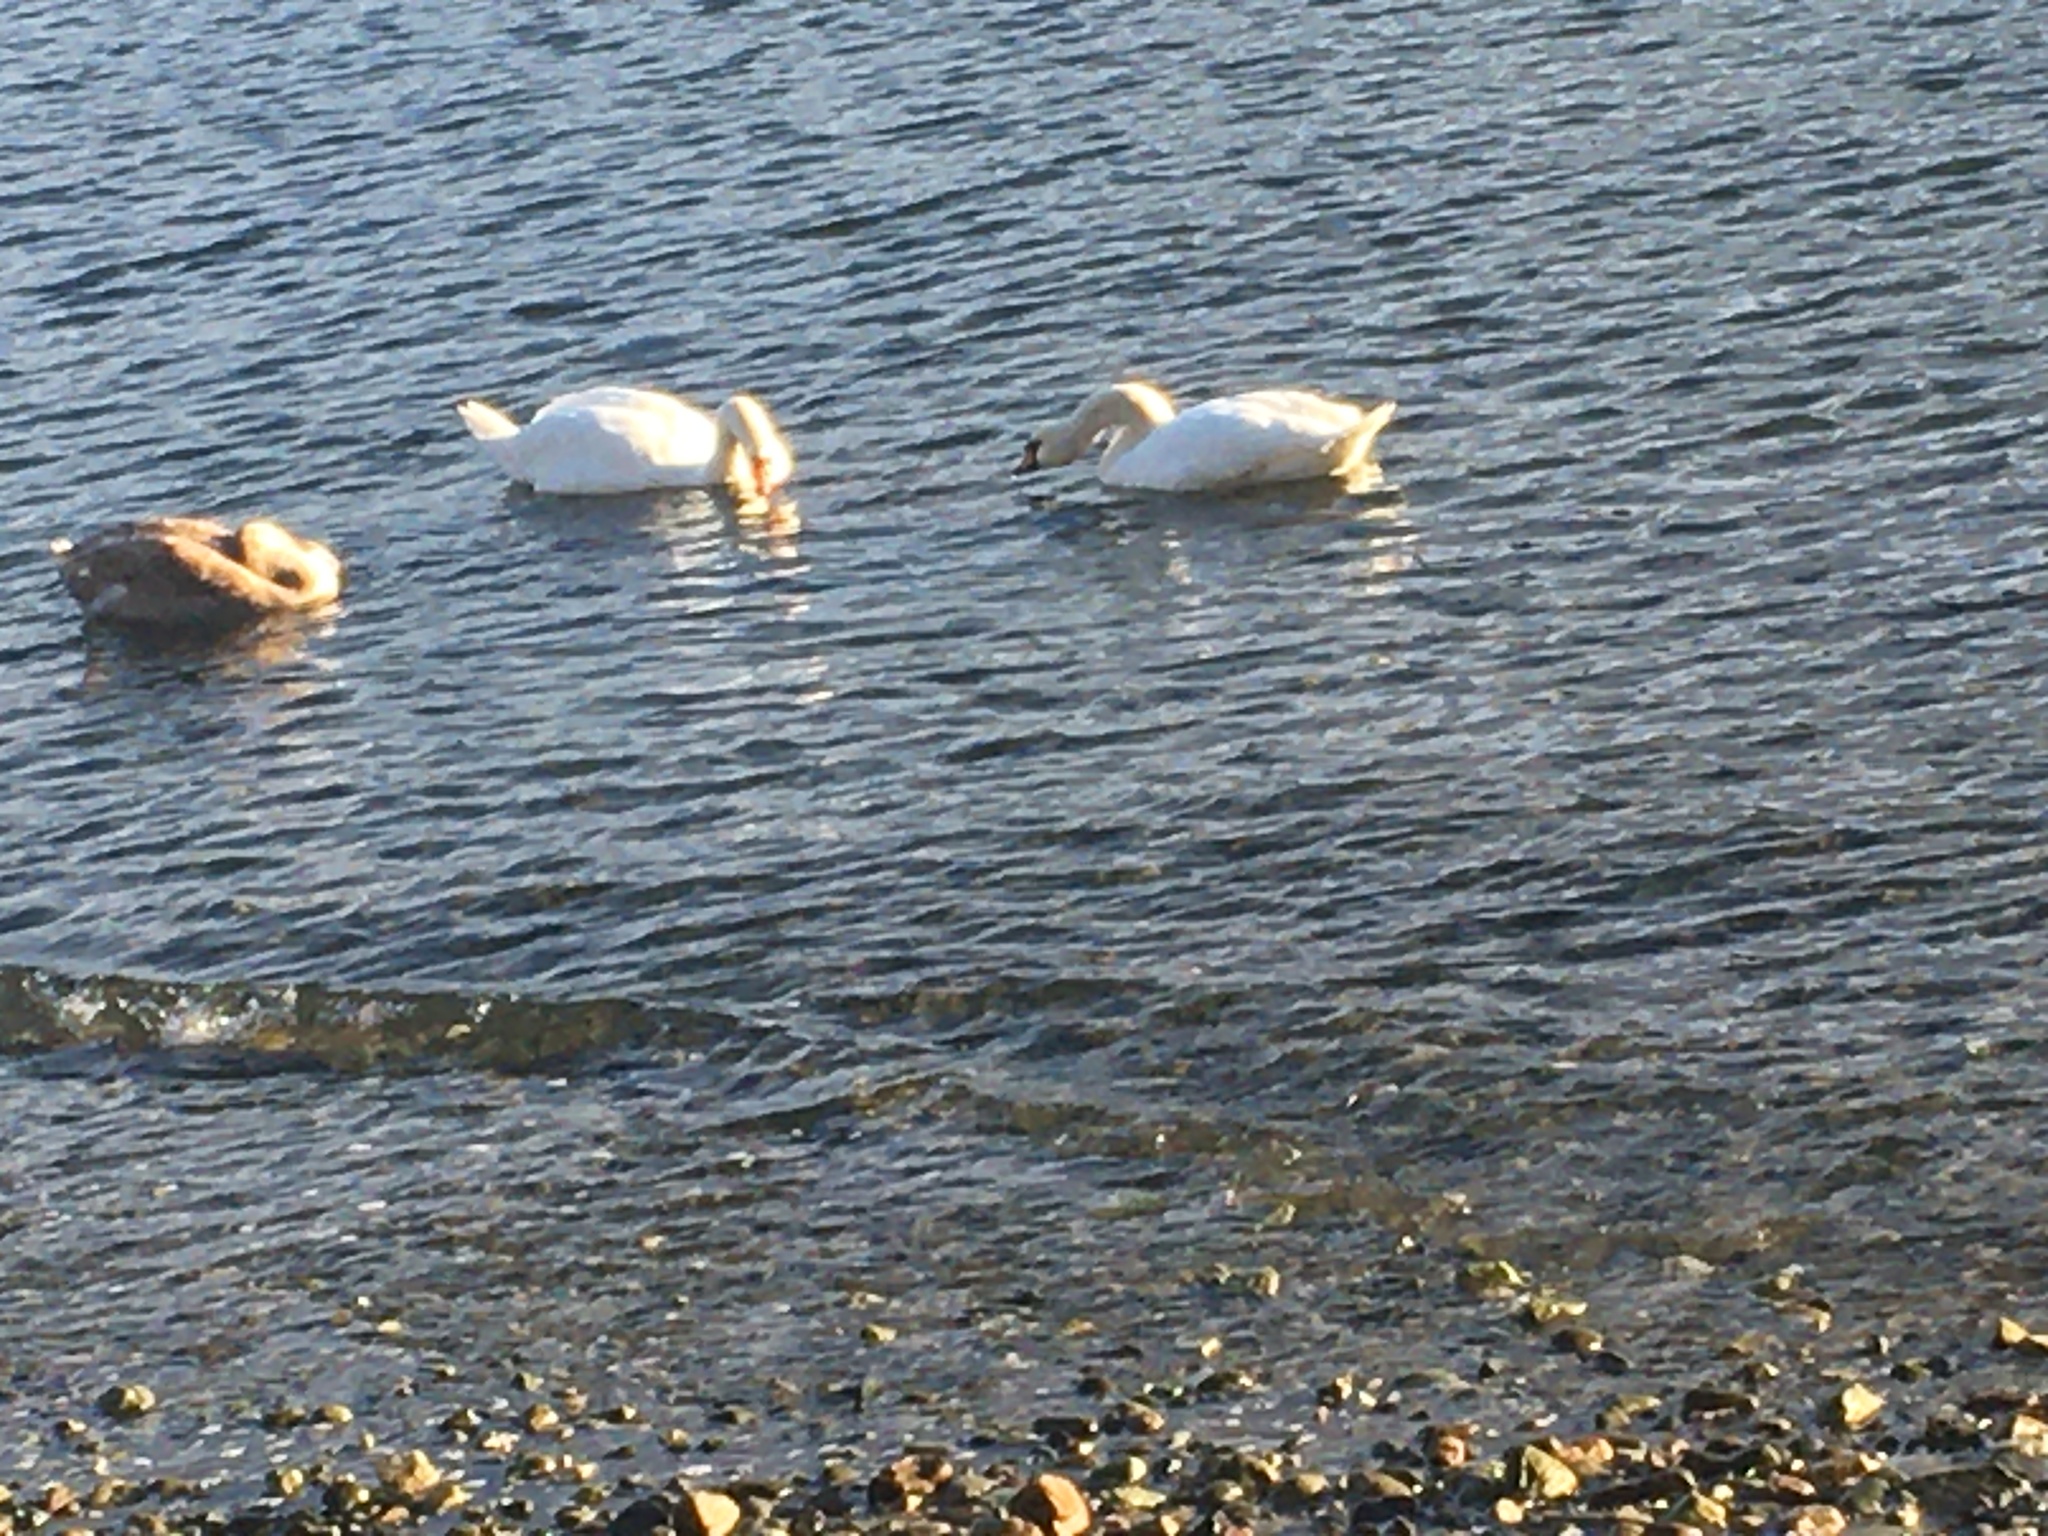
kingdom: Animalia
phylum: Chordata
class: Aves
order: Anseriformes
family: Anatidae
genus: Cygnus
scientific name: Cygnus olor
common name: Mute swan
